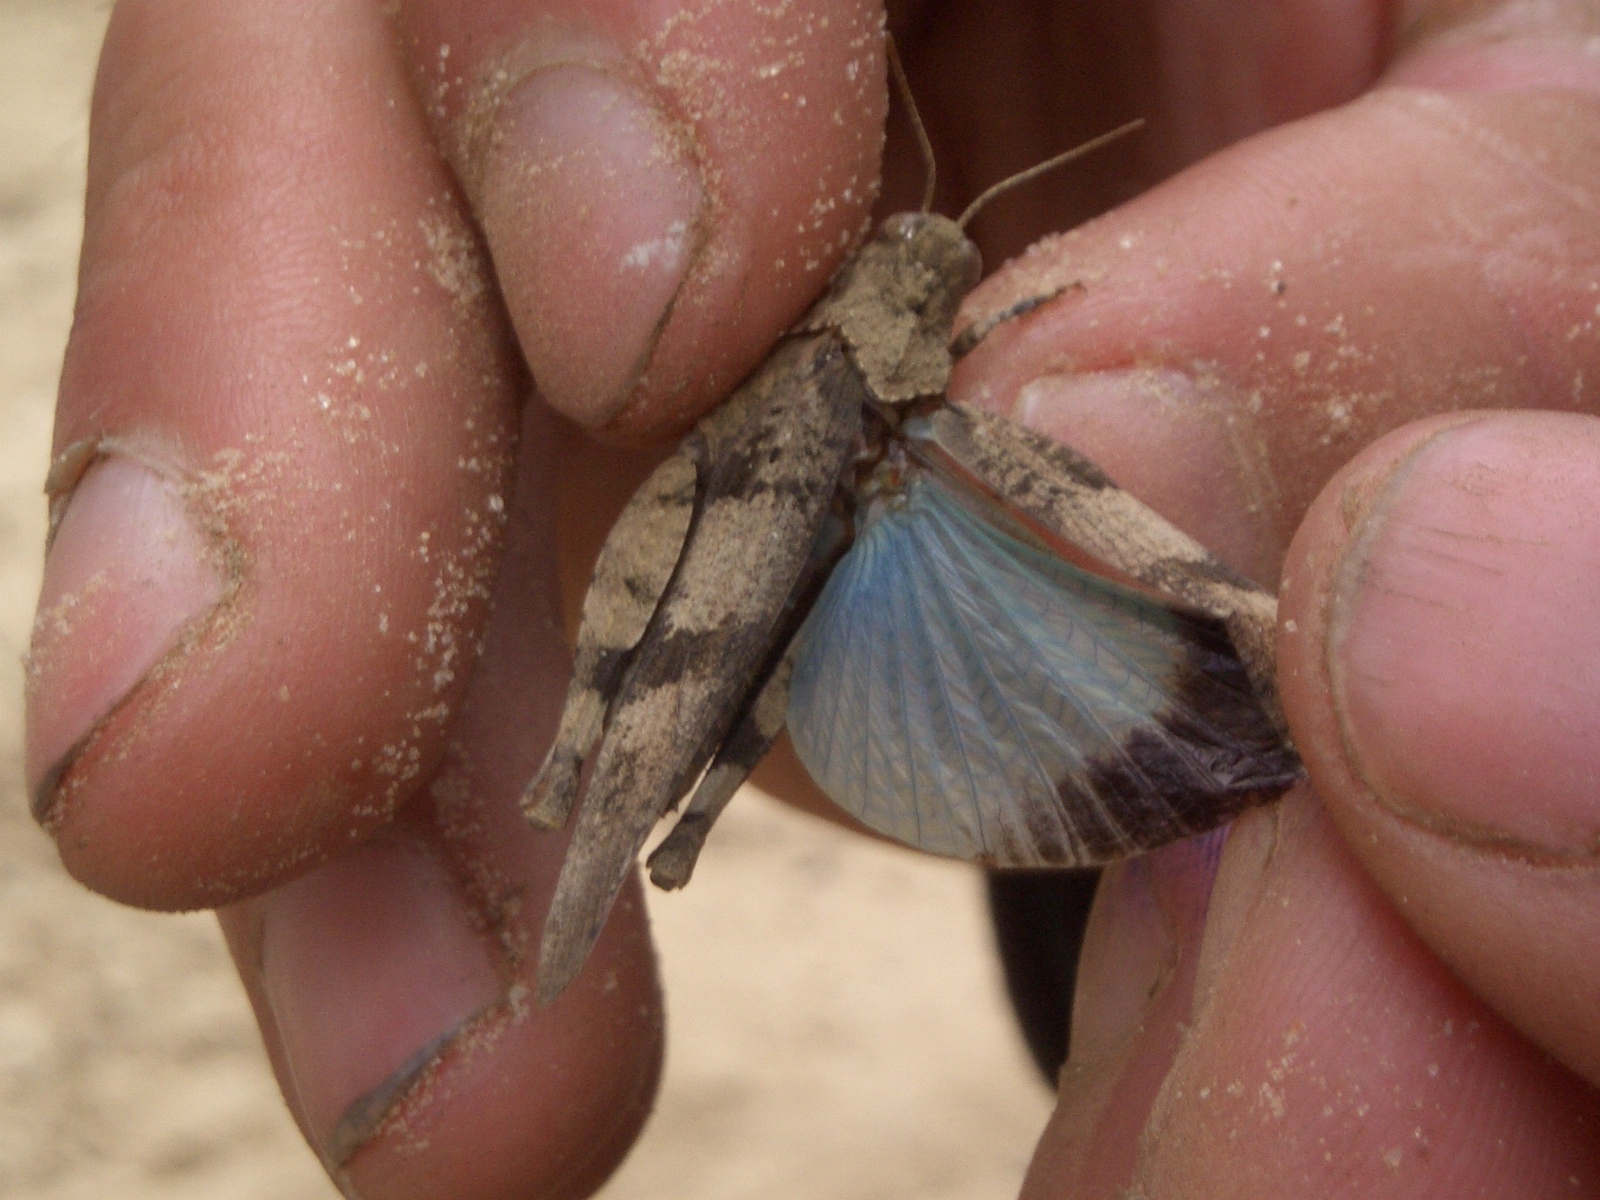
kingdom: Animalia
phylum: Arthropoda
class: Insecta
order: Orthoptera
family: Acrididae
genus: Oedipoda
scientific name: Oedipoda caerulescens
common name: Blue-winged grasshopper
